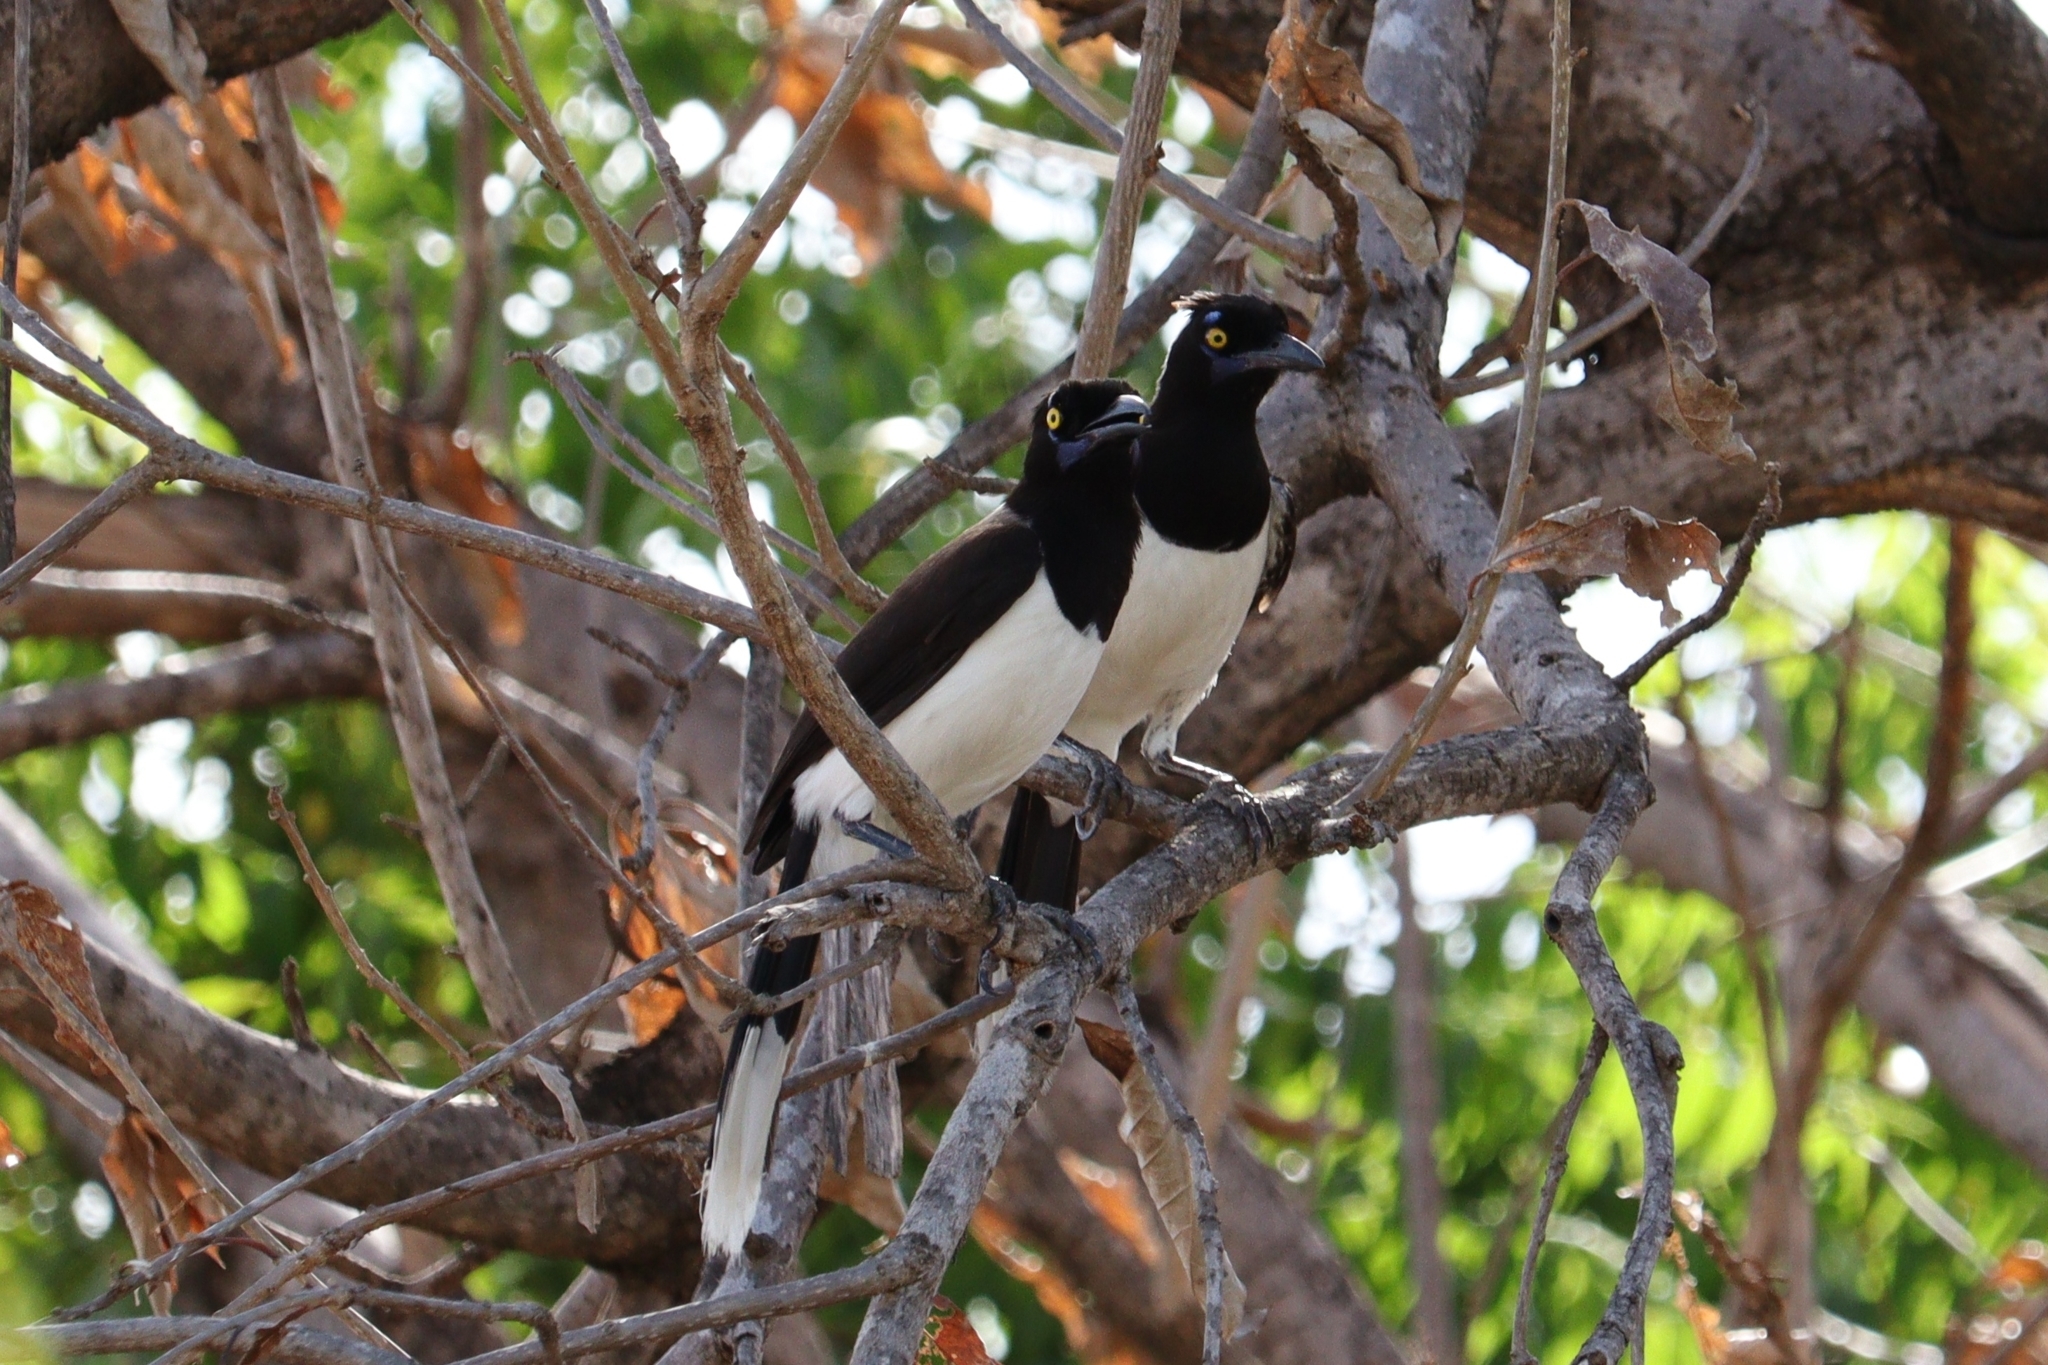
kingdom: Animalia
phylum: Chordata
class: Aves
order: Passeriformes
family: Corvidae
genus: Cyanocorax
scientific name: Cyanocorax cyanopogon
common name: White-naped jay
